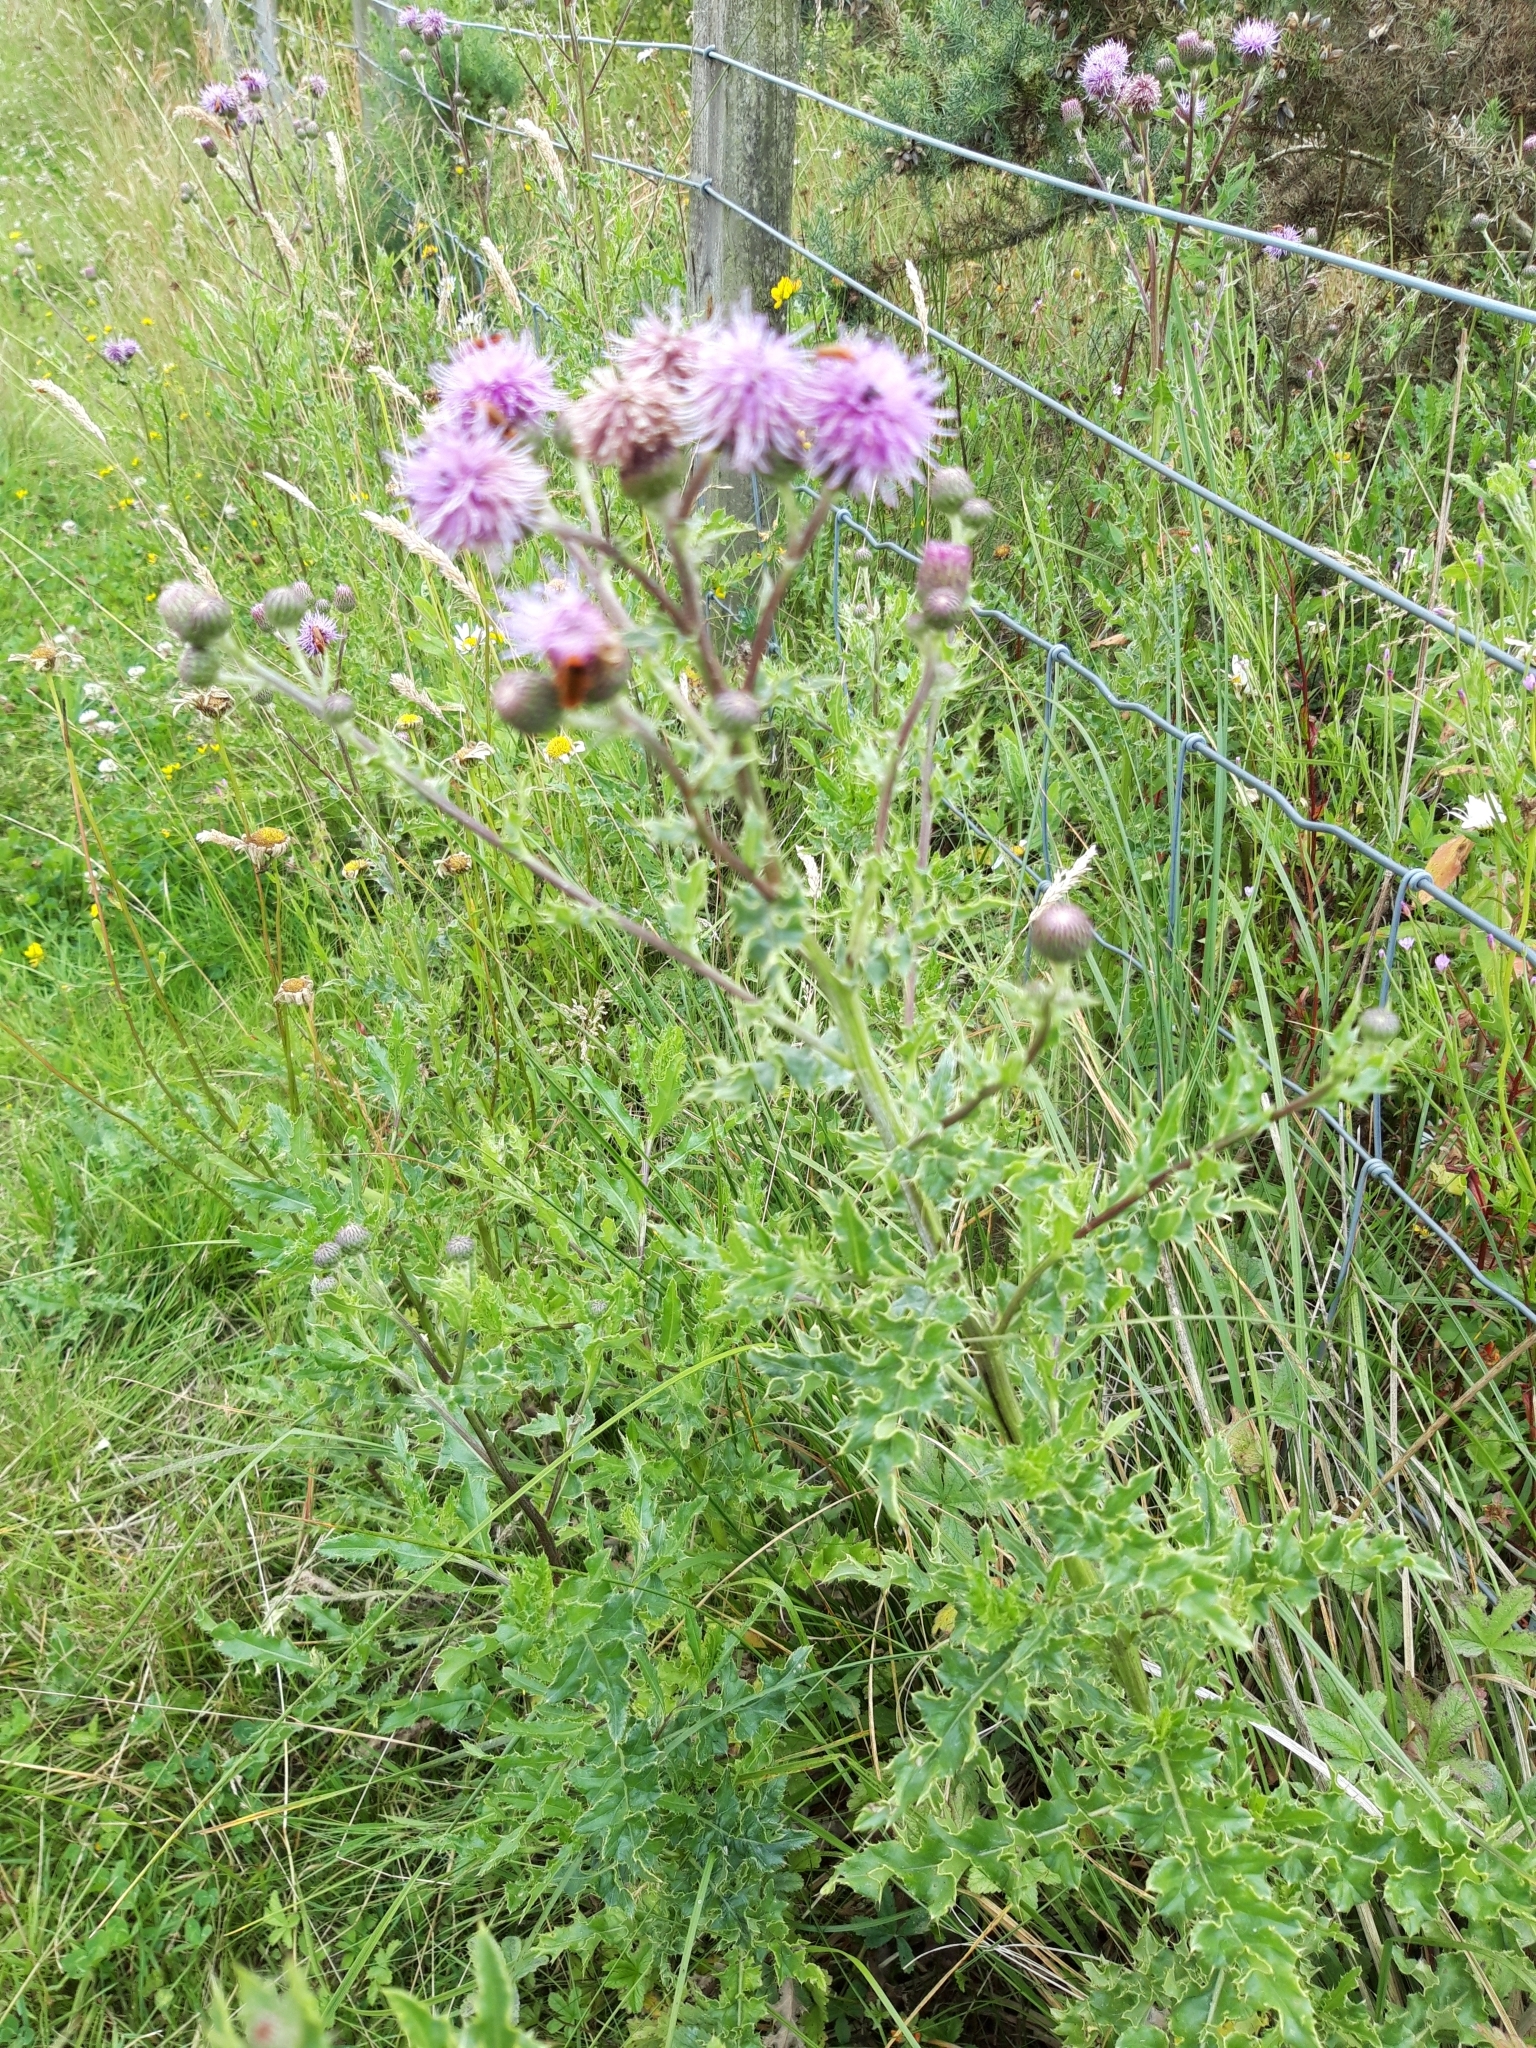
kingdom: Plantae
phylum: Tracheophyta
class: Magnoliopsida
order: Asterales
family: Asteraceae
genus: Cirsium
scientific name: Cirsium arvense
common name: Creeping thistle
